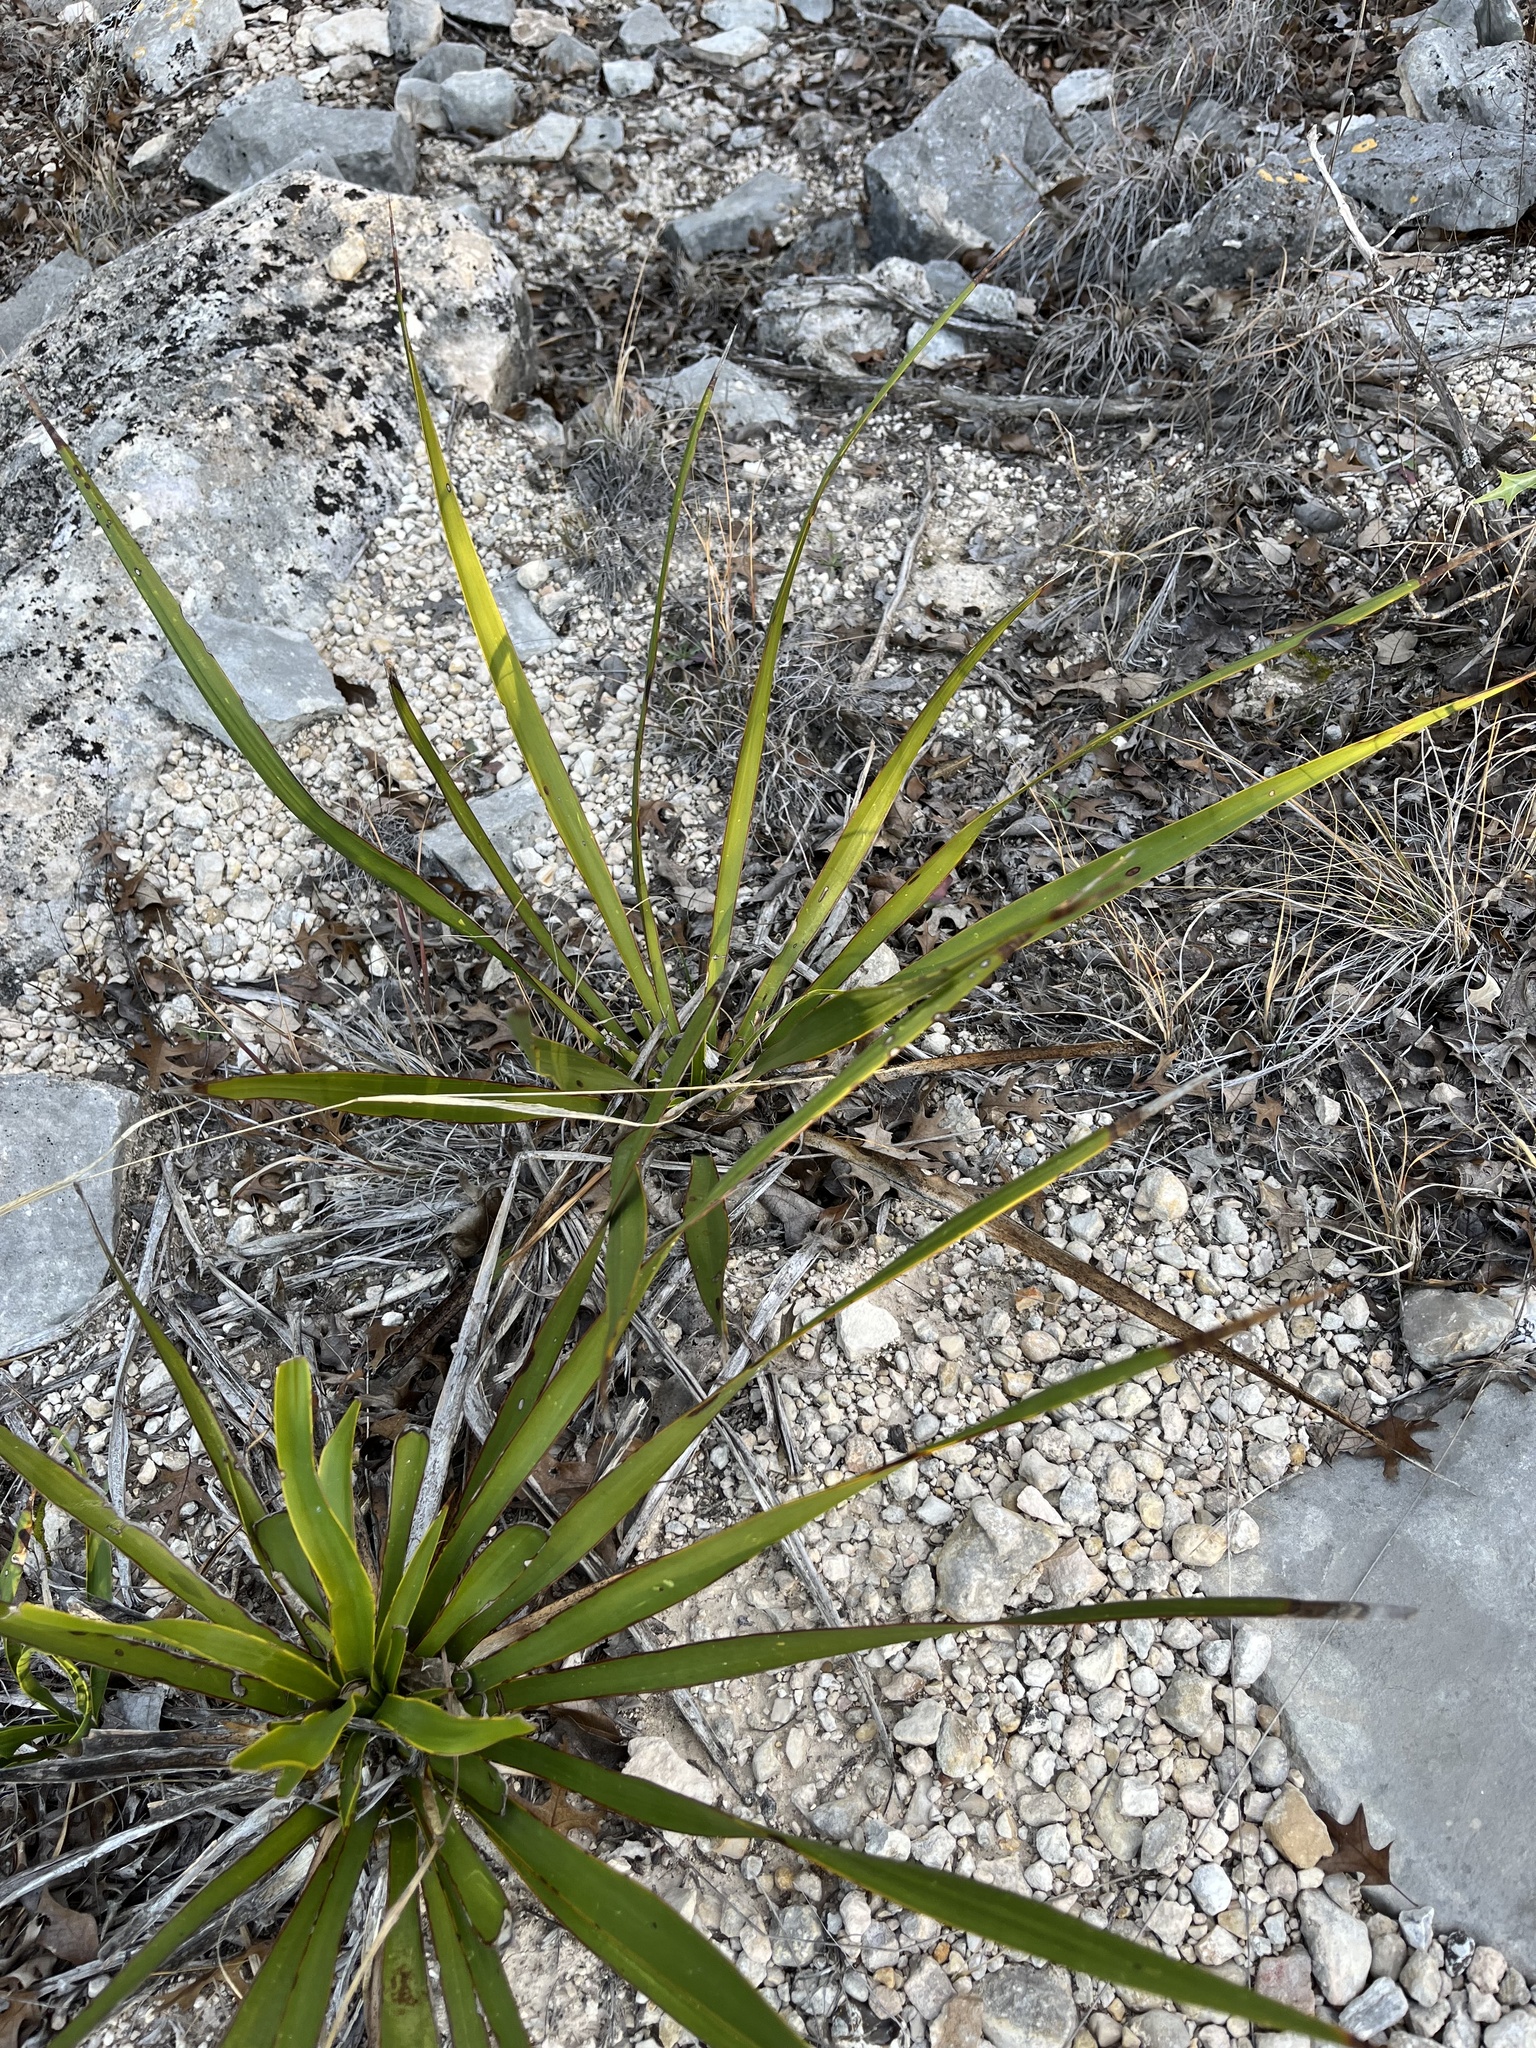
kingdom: Plantae
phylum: Tracheophyta
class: Liliopsida
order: Asparagales
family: Asparagaceae
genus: Yucca
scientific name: Yucca rupicola
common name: Twisted-leaf spanish-dagger
